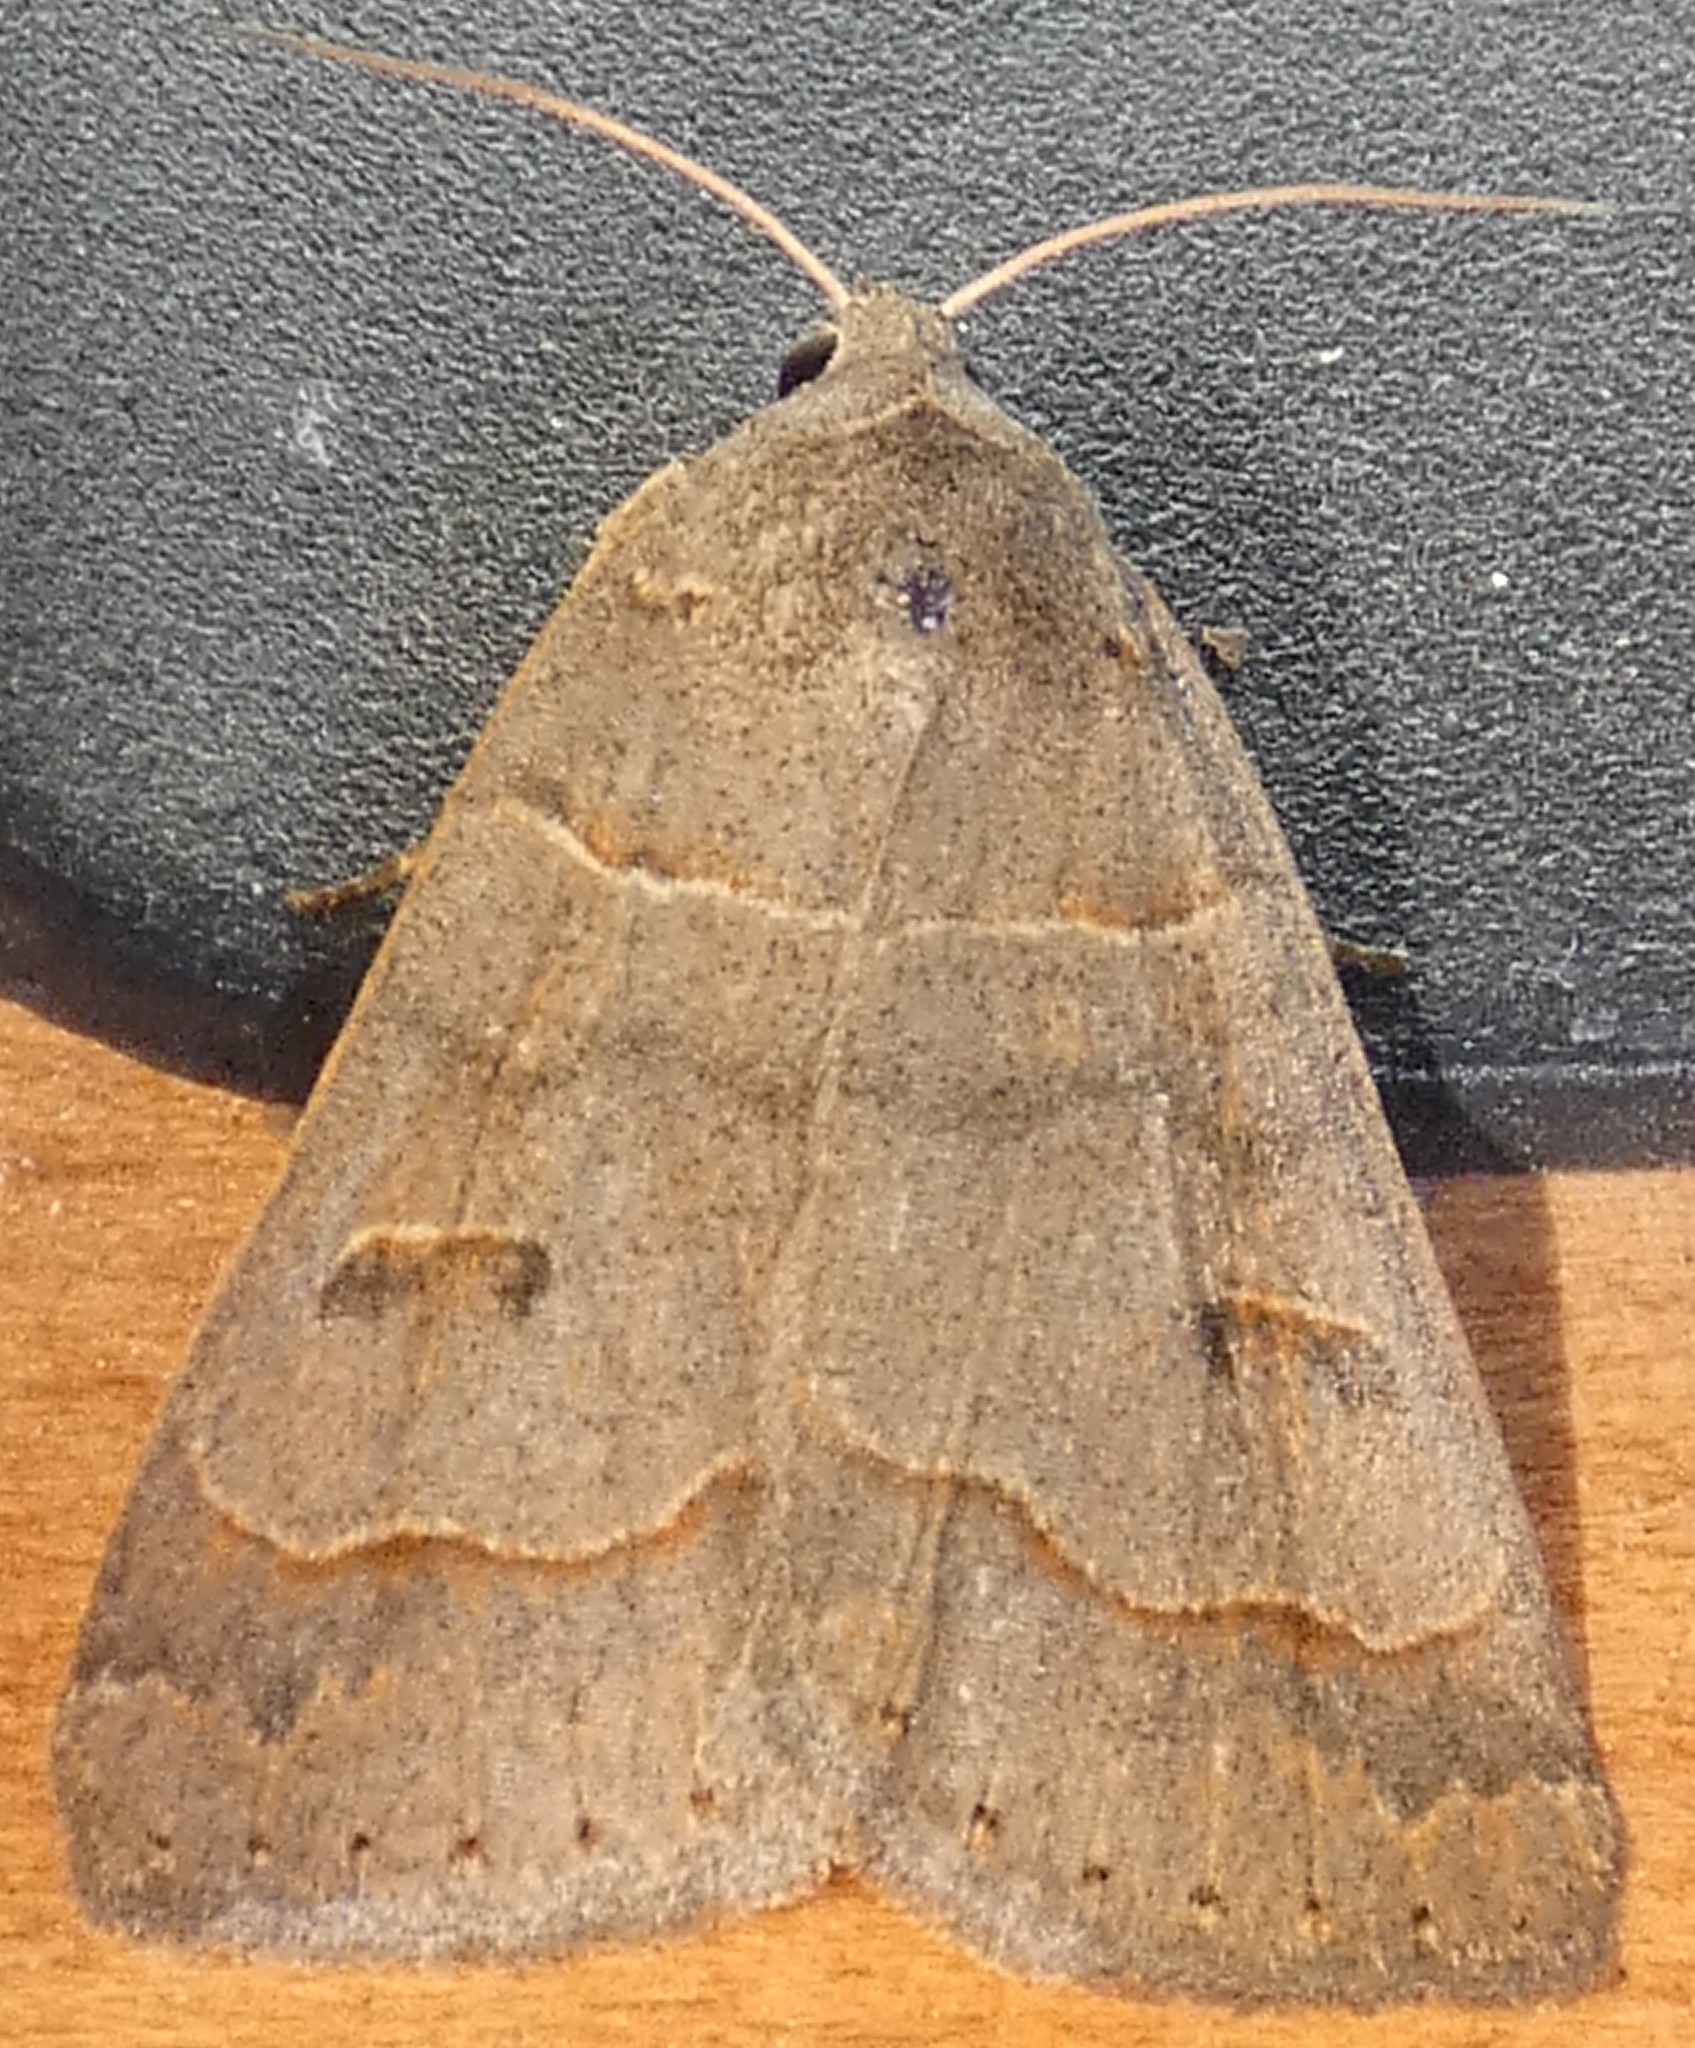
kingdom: Animalia
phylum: Arthropoda
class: Insecta
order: Lepidoptera
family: Erebidae
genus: Phoberia
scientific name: Phoberia atomaris
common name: Common oak moth
